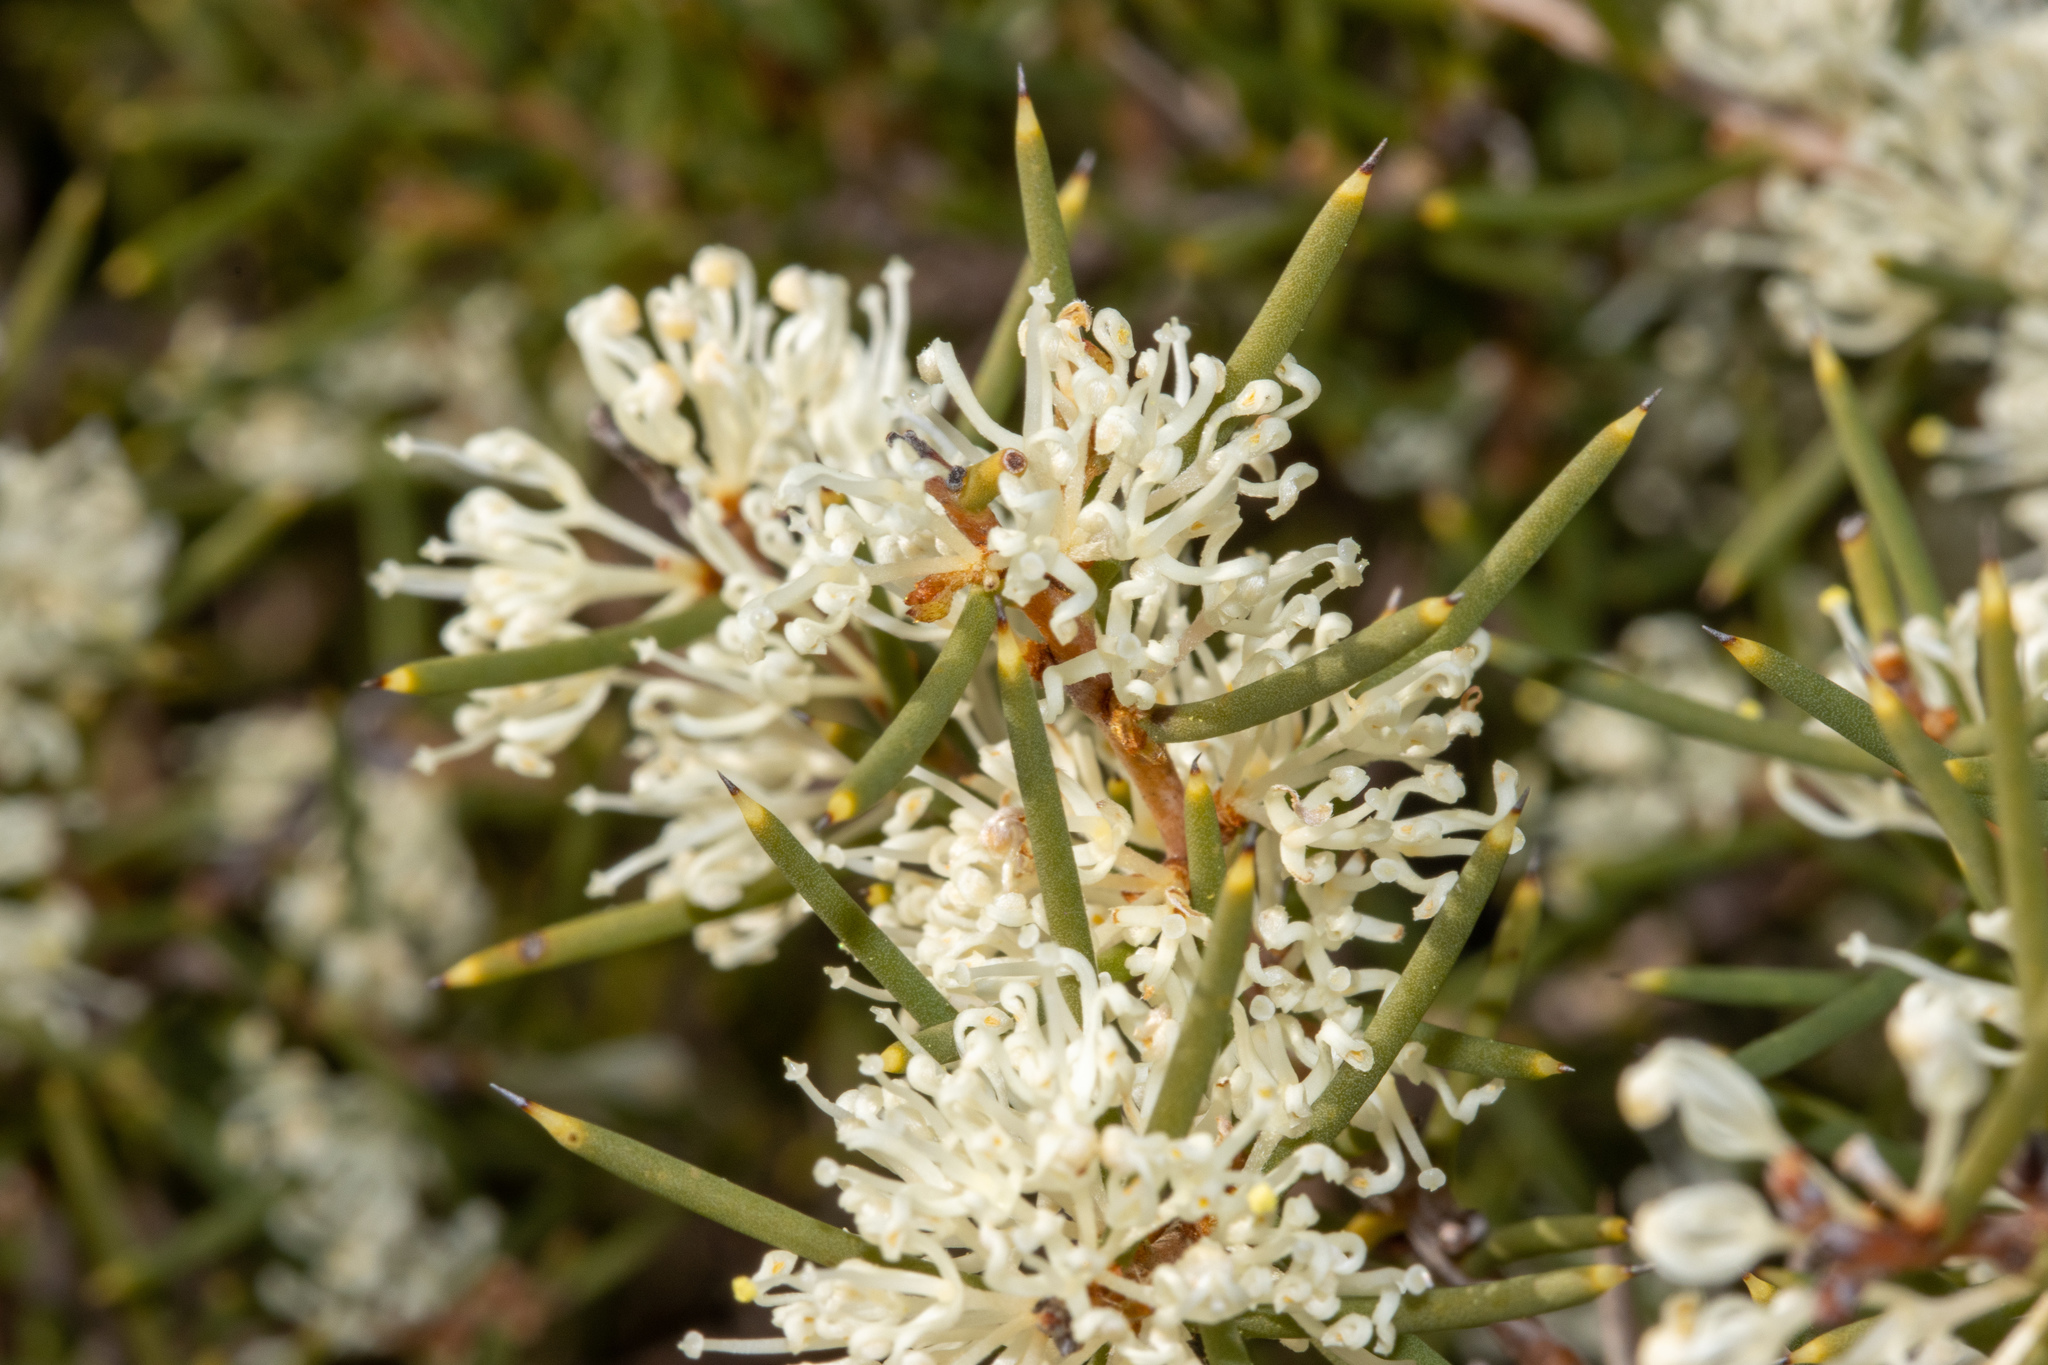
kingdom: Plantae
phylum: Tracheophyta
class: Magnoliopsida
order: Proteales
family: Proteaceae
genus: Hakea
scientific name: Hakea rugosa
